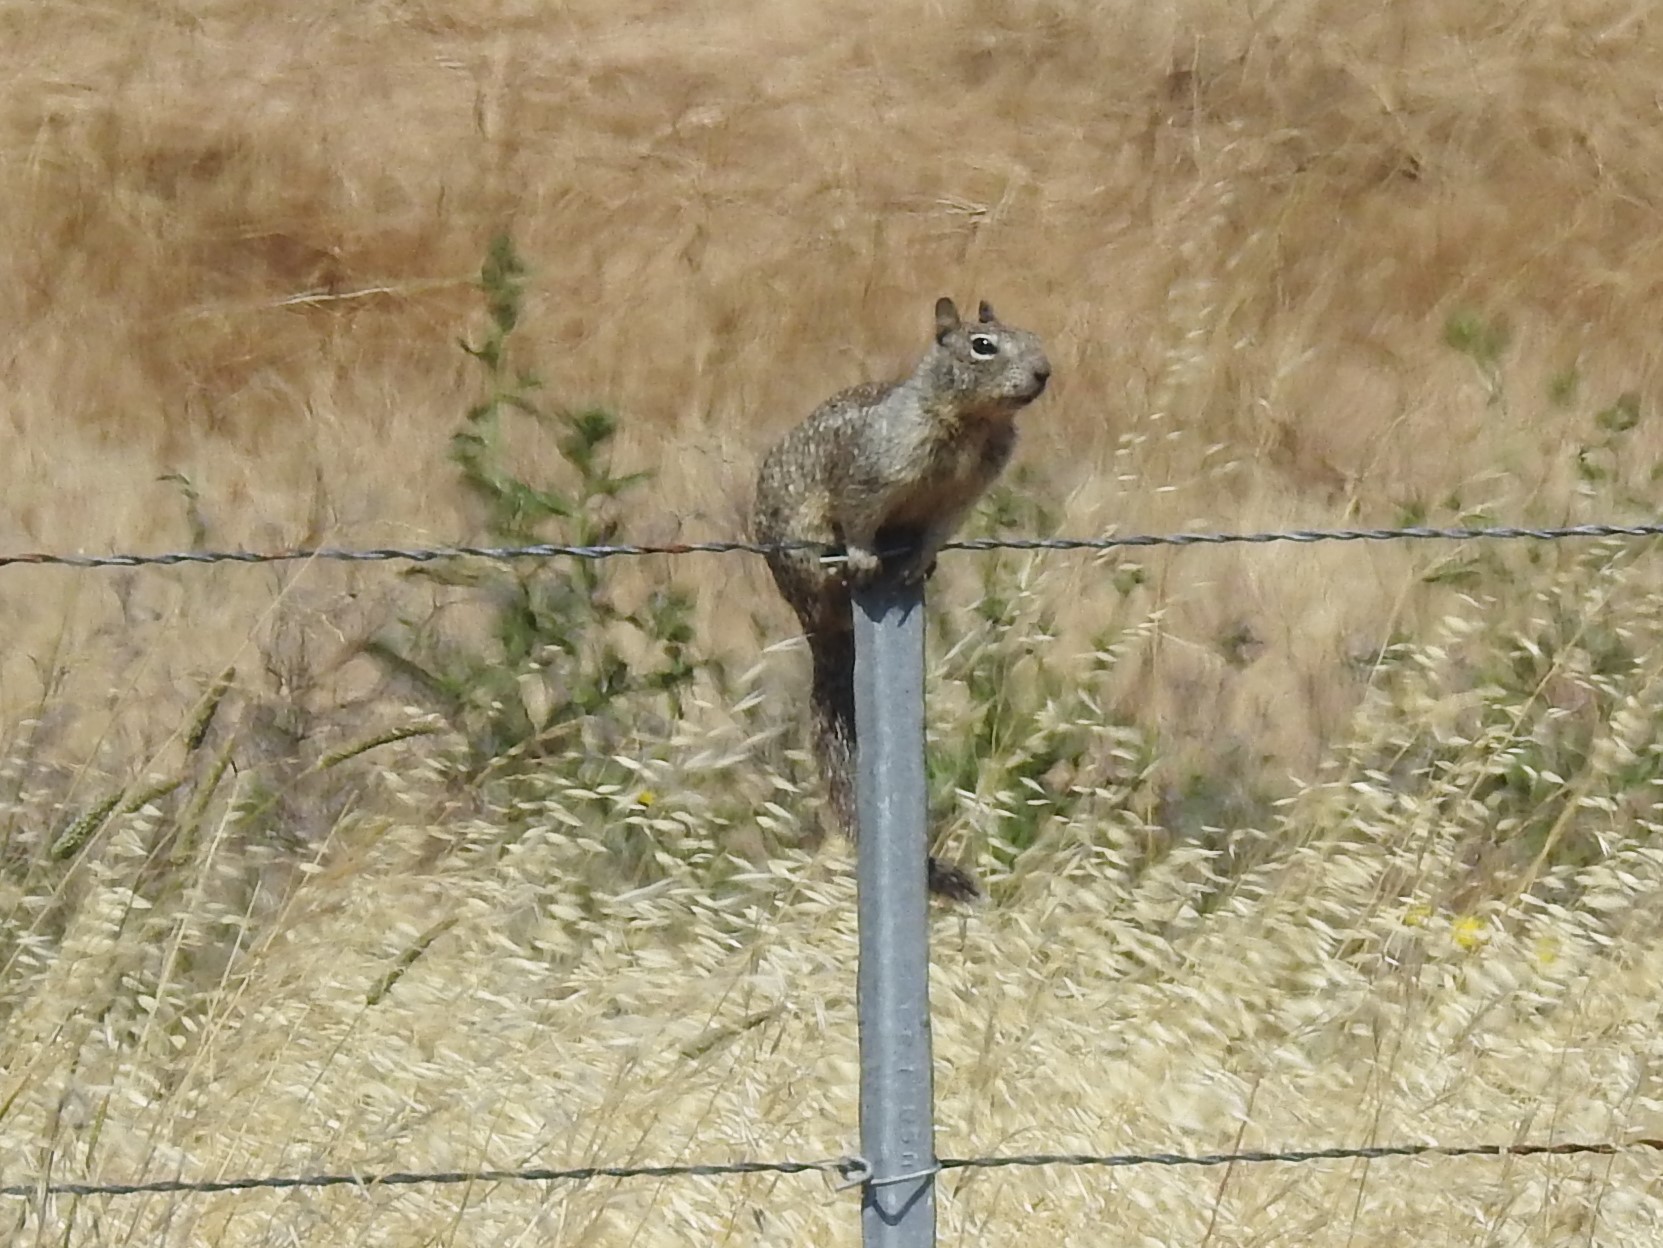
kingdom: Animalia
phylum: Chordata
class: Mammalia
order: Rodentia
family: Sciuridae
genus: Otospermophilus
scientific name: Otospermophilus beecheyi
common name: California ground squirrel
